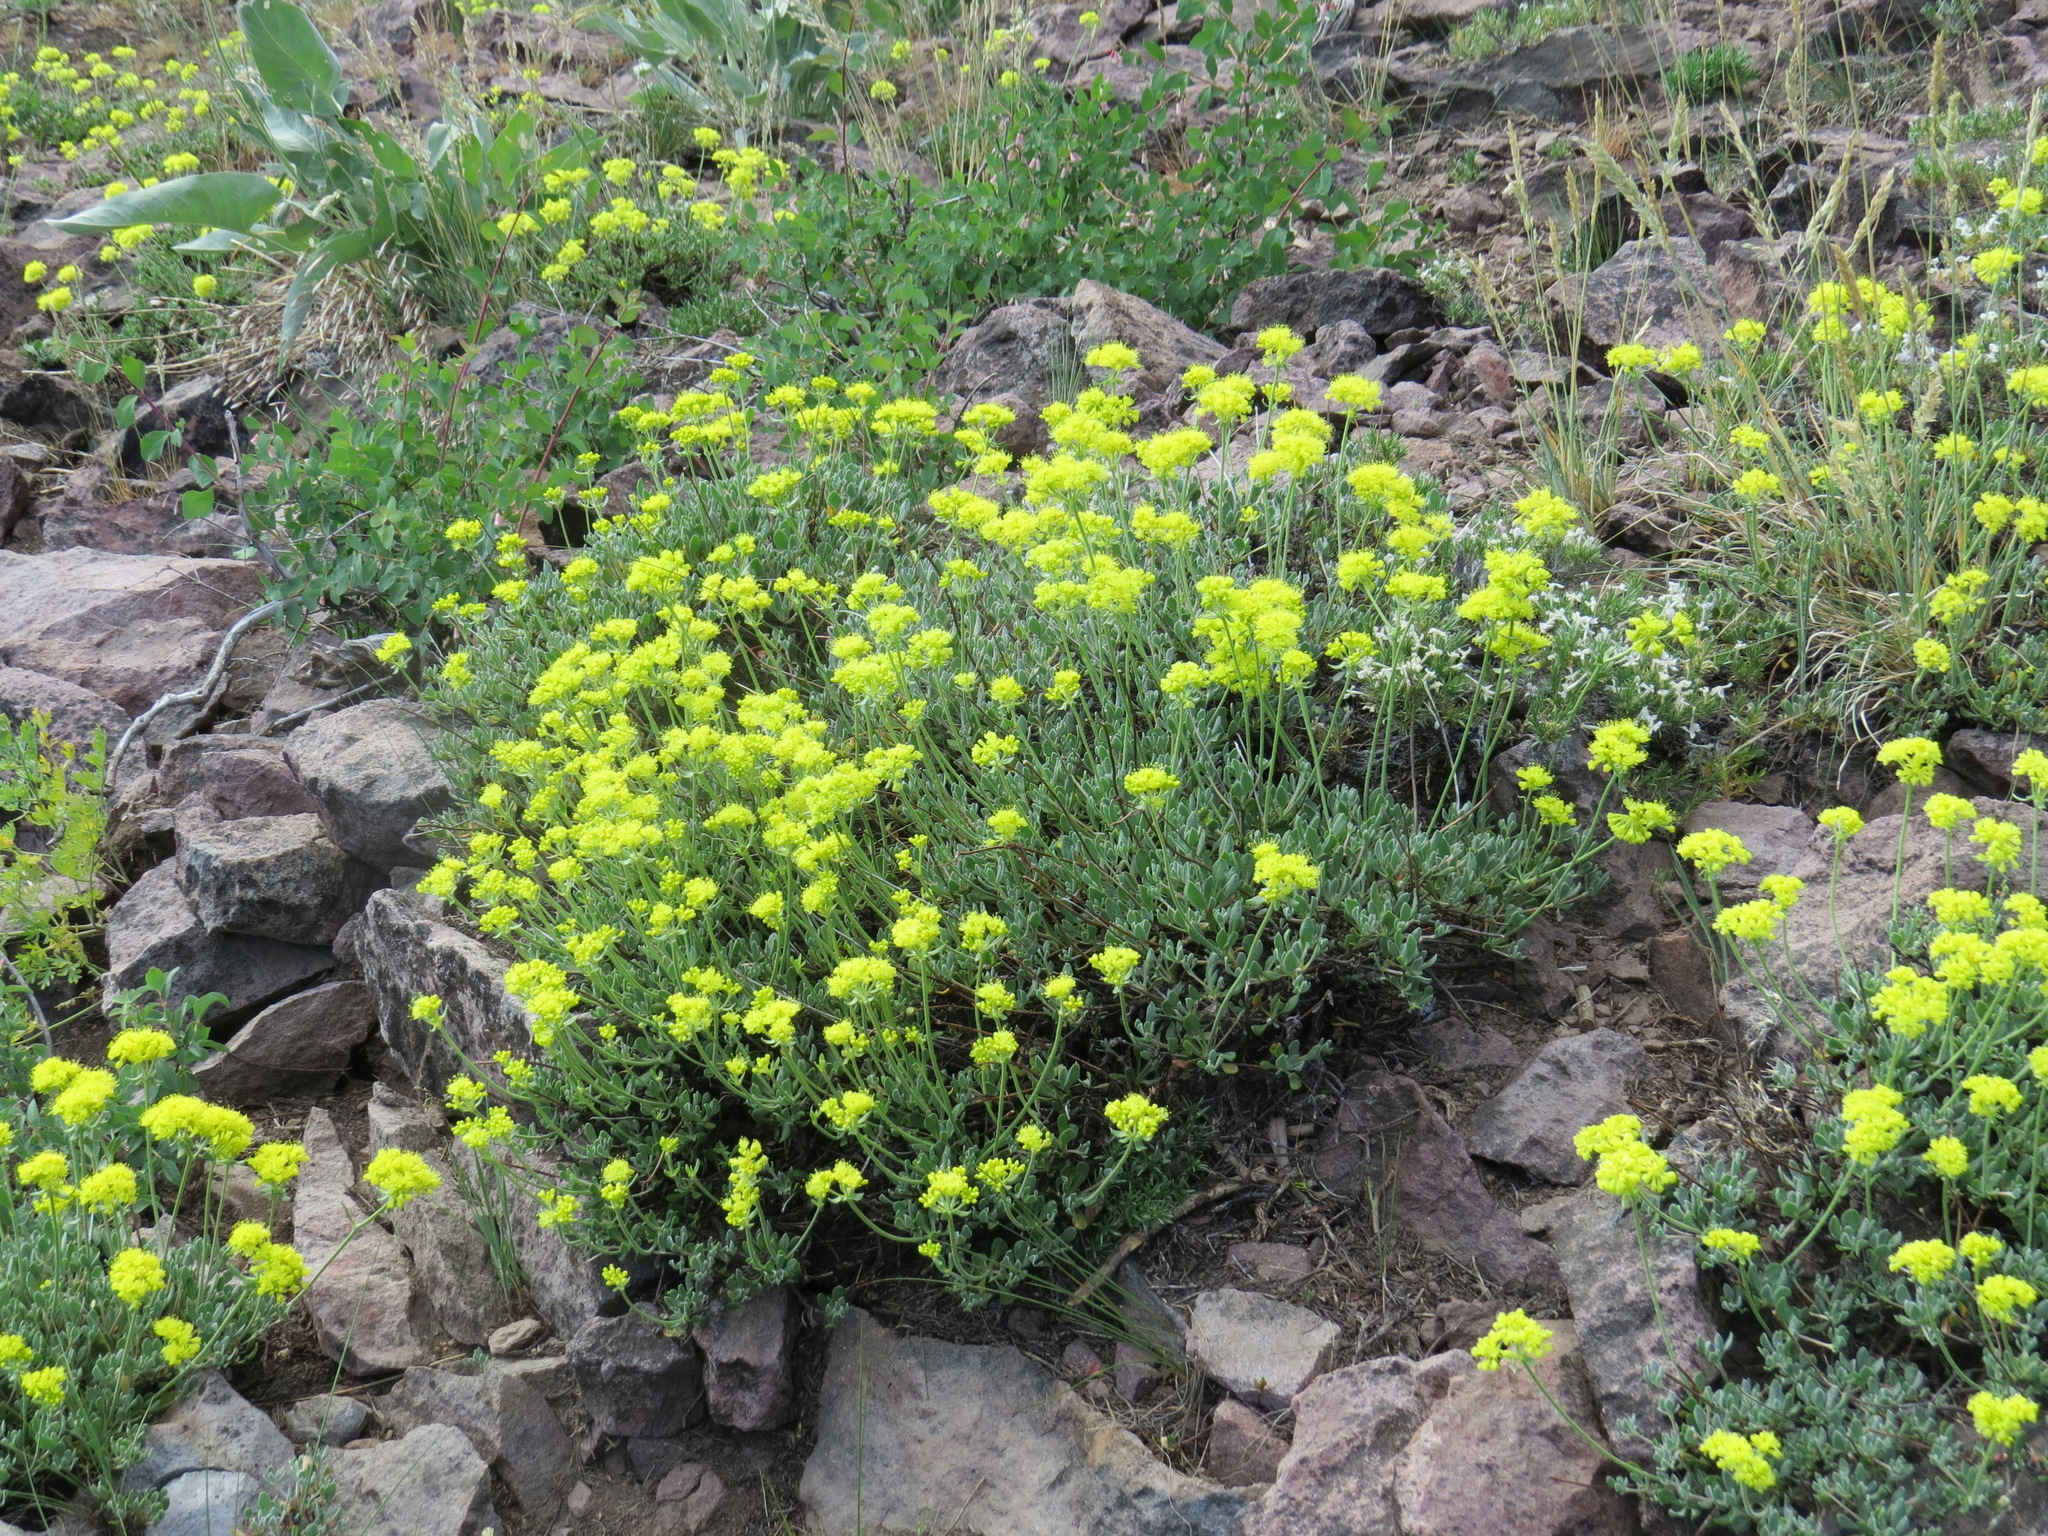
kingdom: Plantae
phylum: Tracheophyta
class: Magnoliopsida
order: Caryophyllales
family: Polygonaceae
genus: Eriogonum
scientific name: Eriogonum umbellatum
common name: Sulfur-buckwheat
